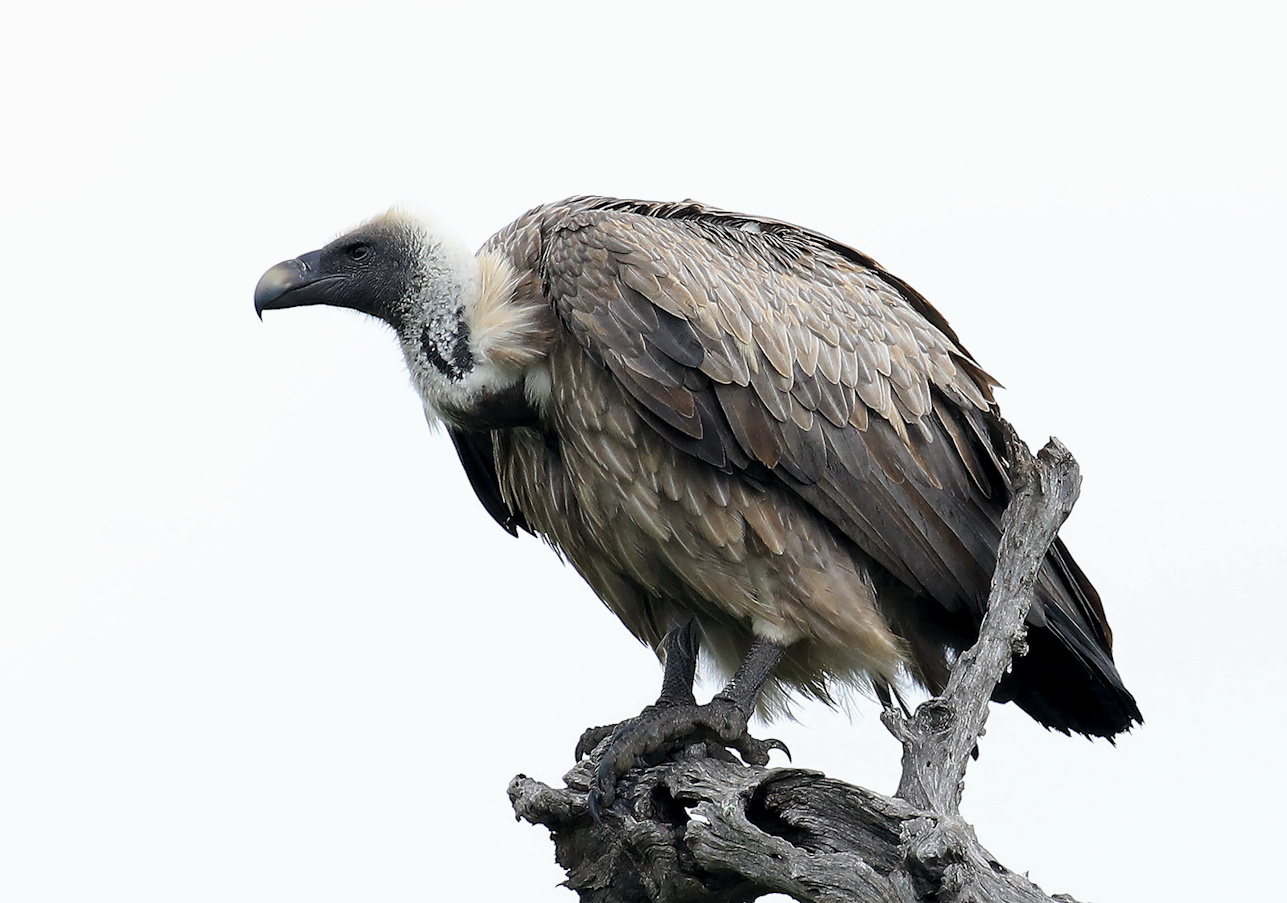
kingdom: Animalia
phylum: Chordata
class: Aves
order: Accipitriformes
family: Accipitridae
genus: Gyps
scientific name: Gyps africanus
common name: White-backed vulture
